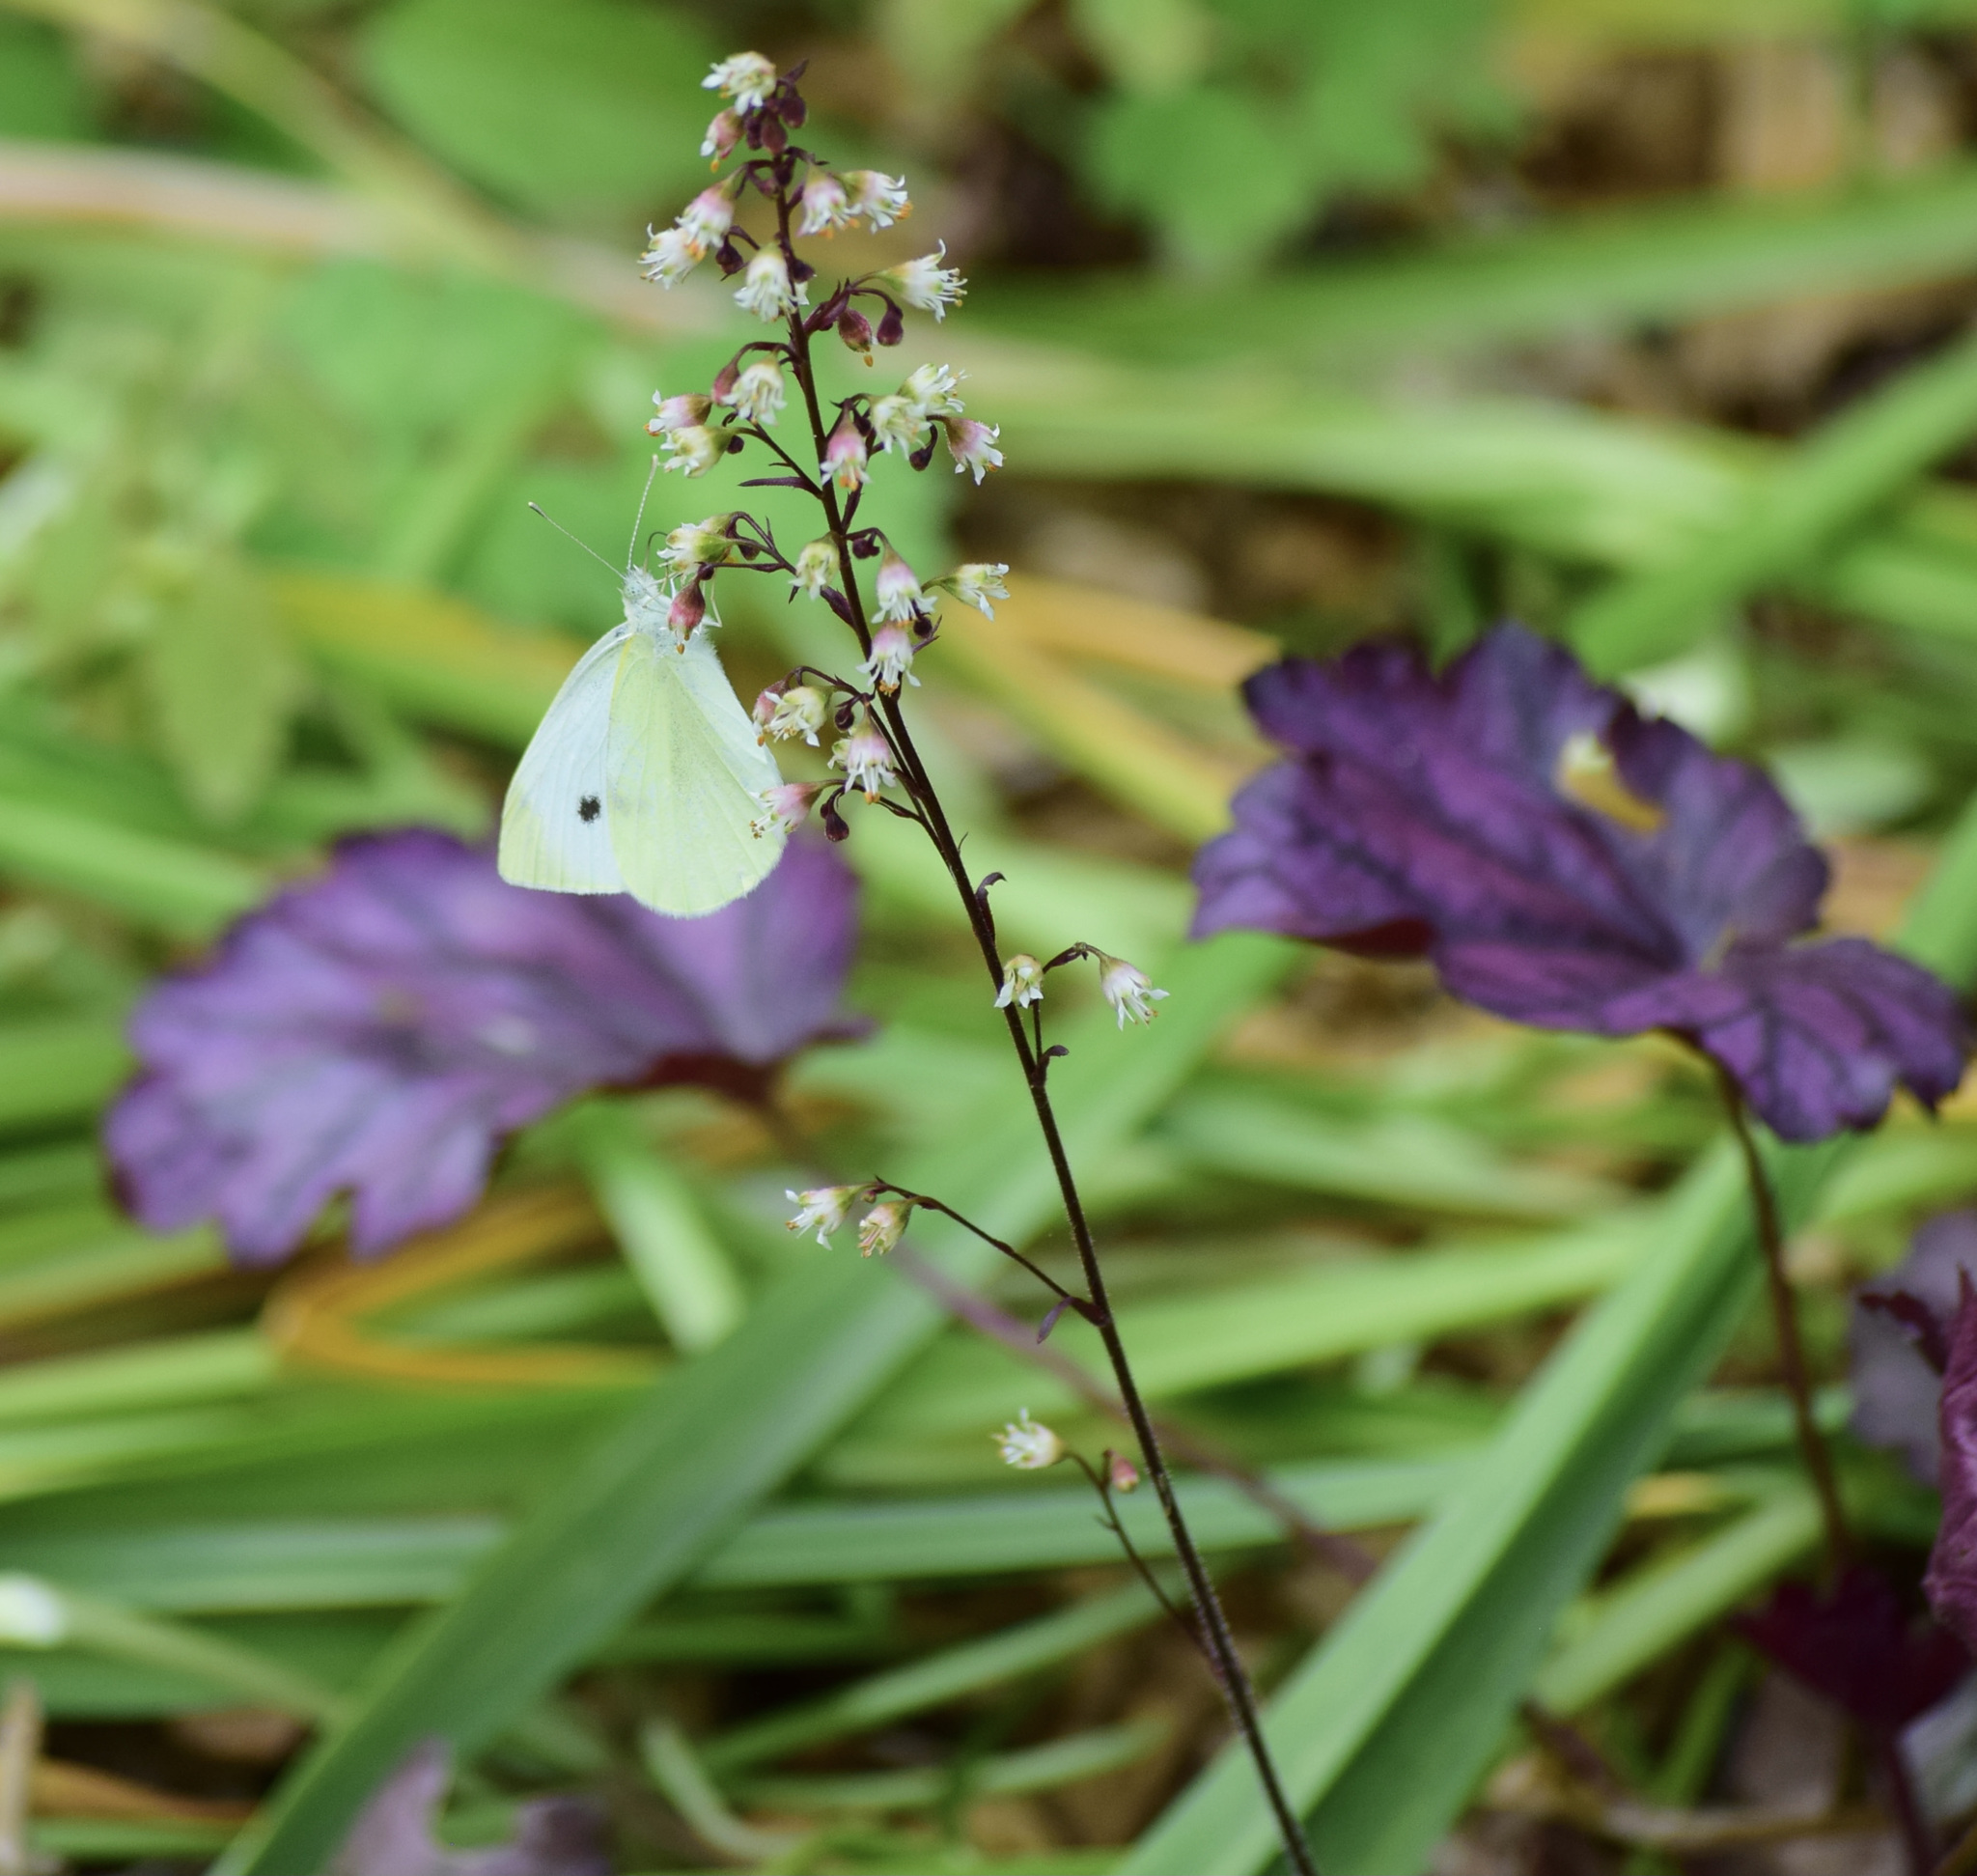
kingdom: Animalia
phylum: Arthropoda
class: Insecta
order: Lepidoptera
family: Pieridae
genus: Pieris
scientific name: Pieris rapae
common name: Small white
